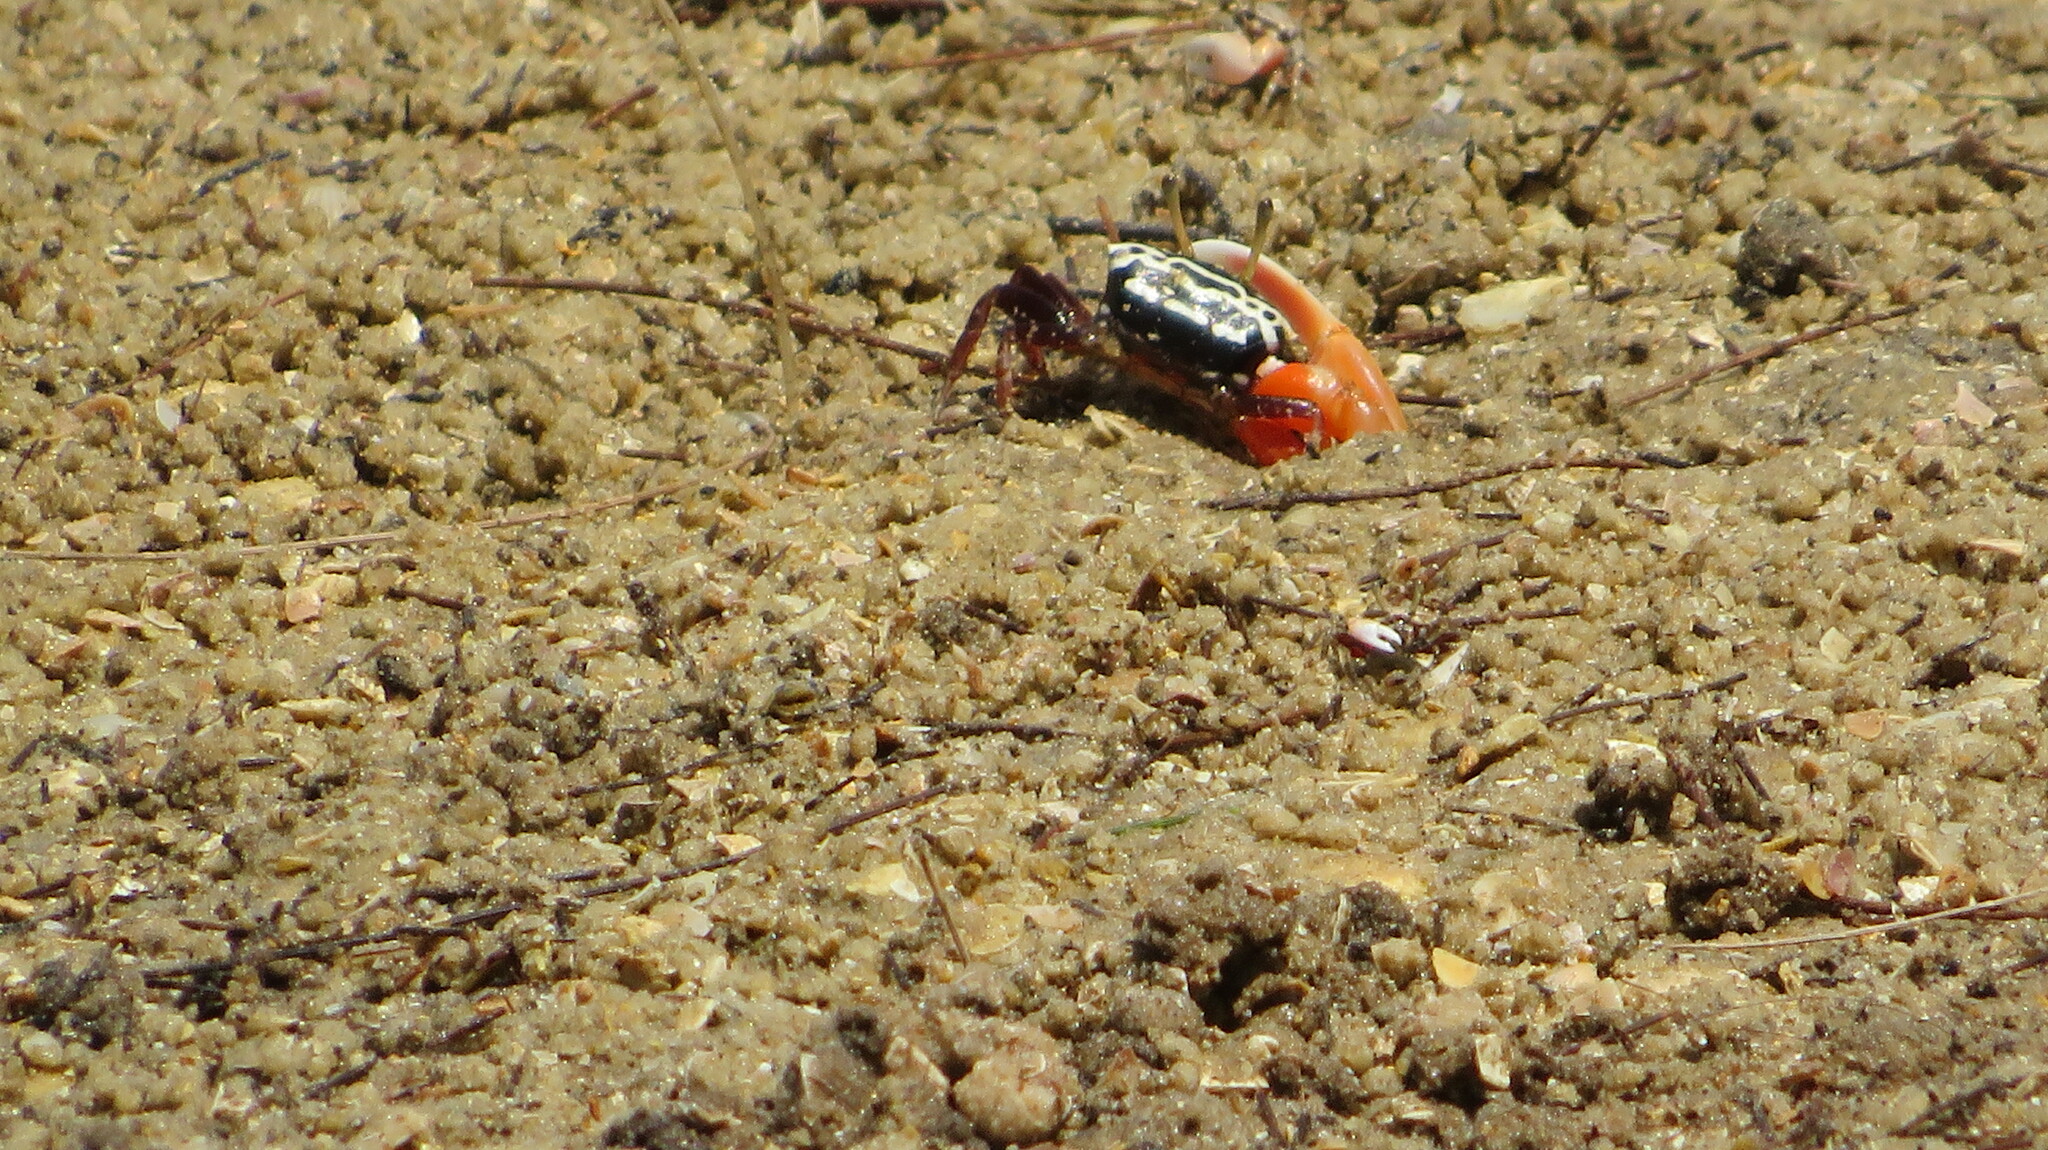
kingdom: Animalia
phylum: Arthropoda
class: Malacostraca
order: Decapoda
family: Ocypodidae
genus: Austruca
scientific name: Austruca annulipes
